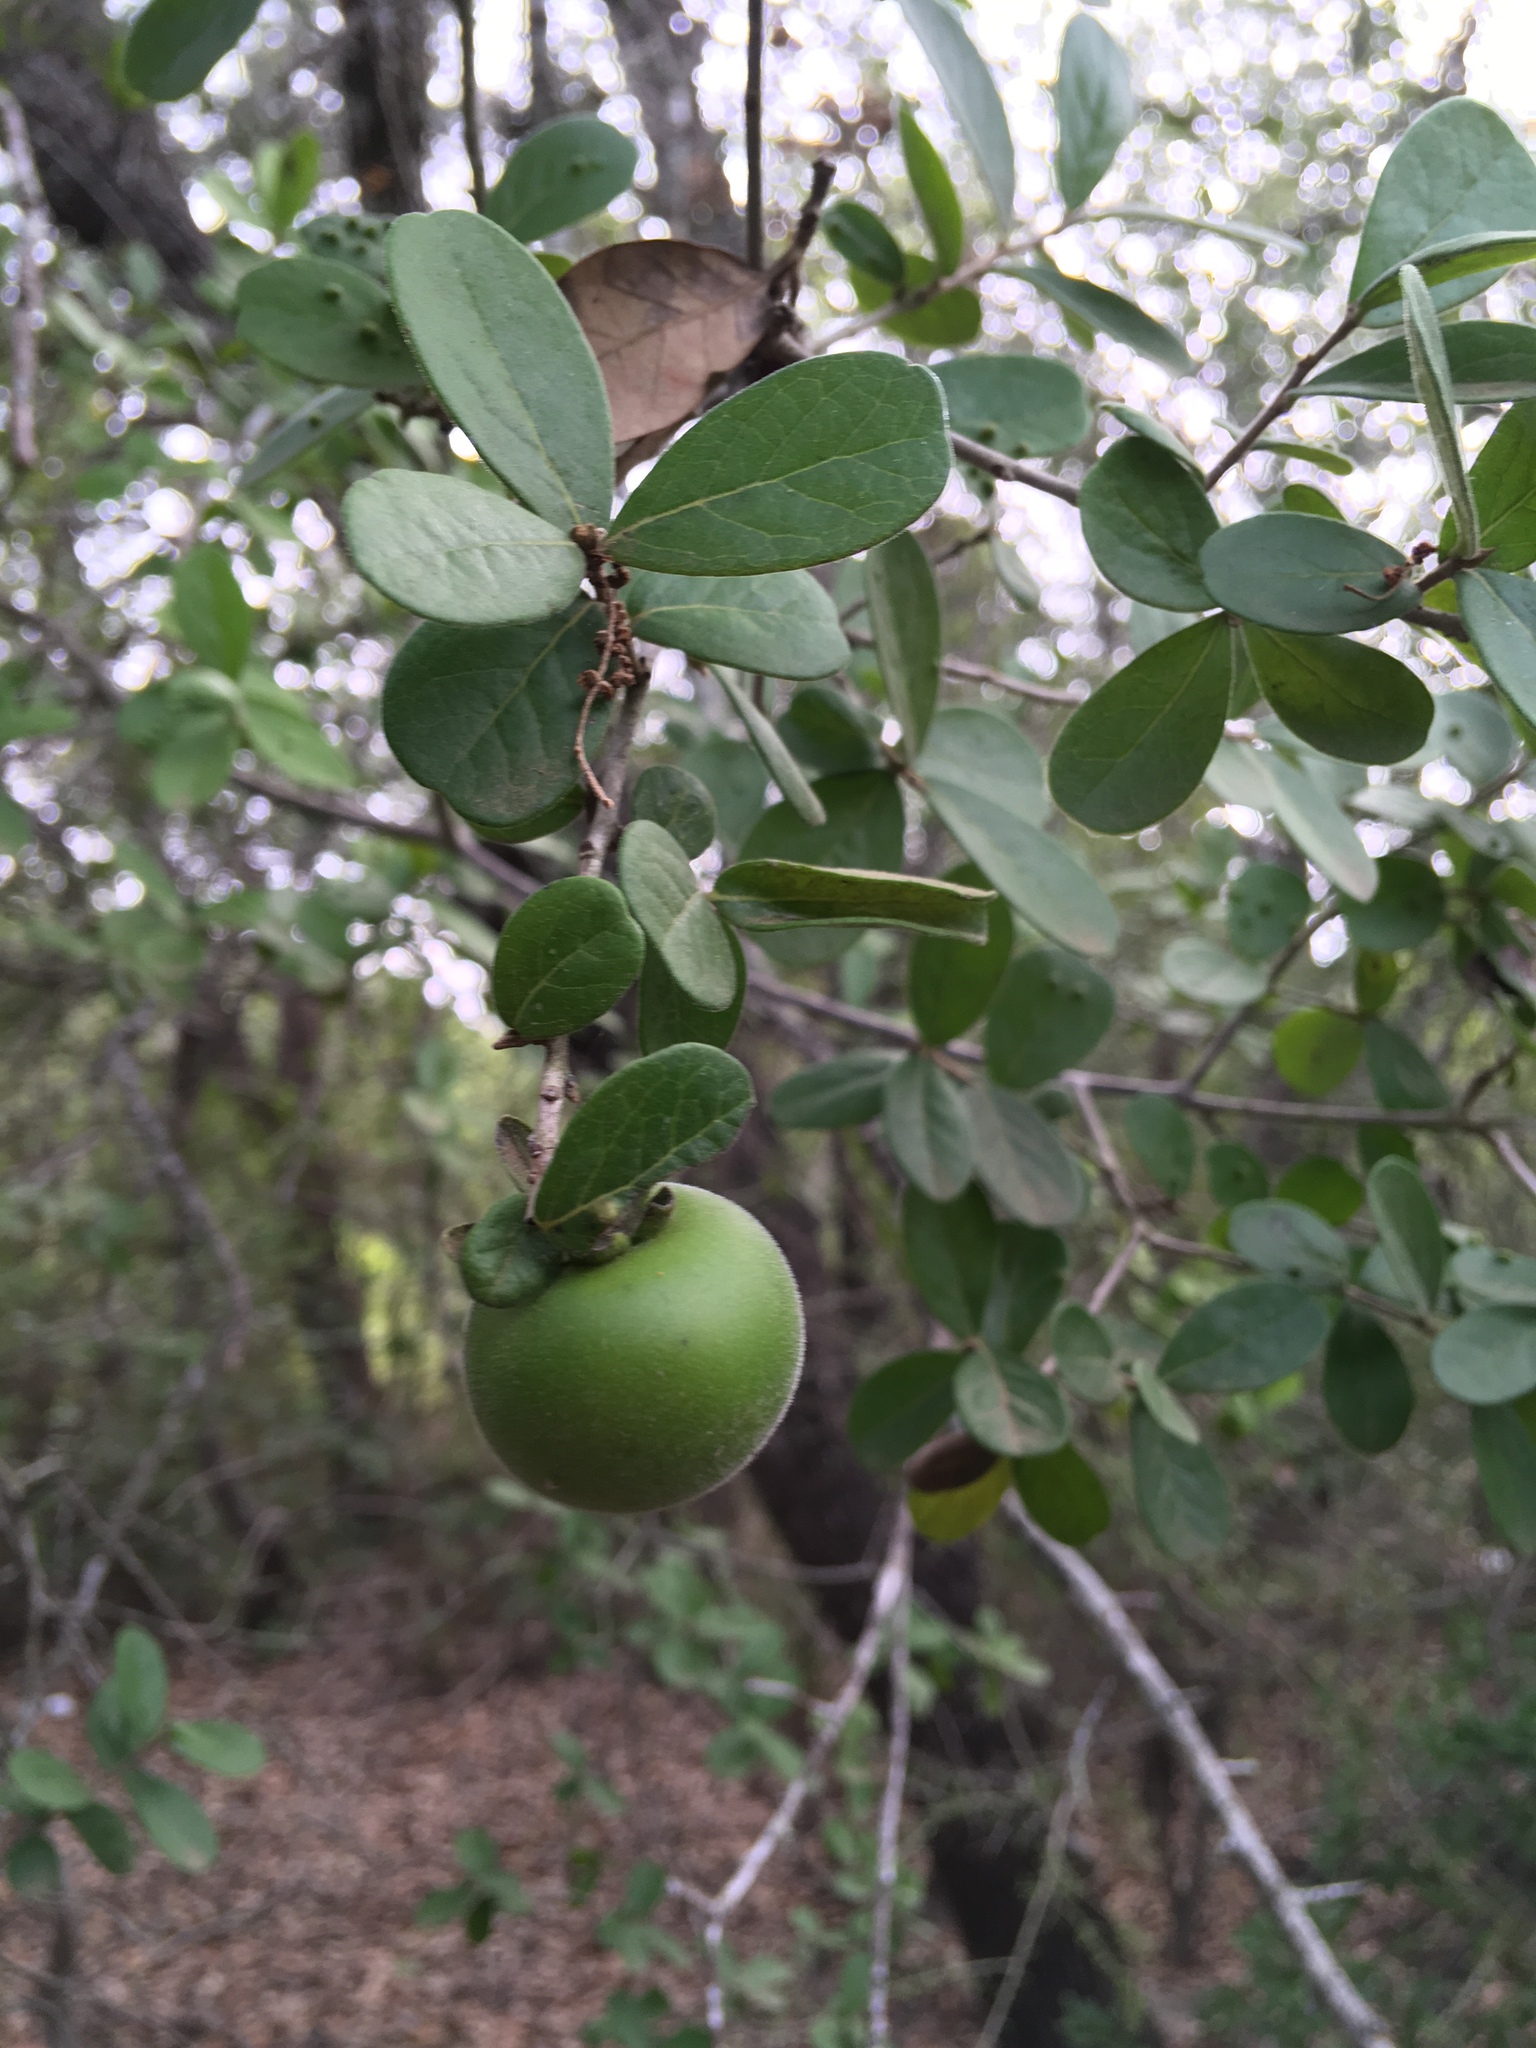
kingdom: Plantae
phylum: Tracheophyta
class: Magnoliopsida
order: Ericales
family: Ebenaceae
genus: Diospyros
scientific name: Diospyros texana
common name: Texas persimmon
